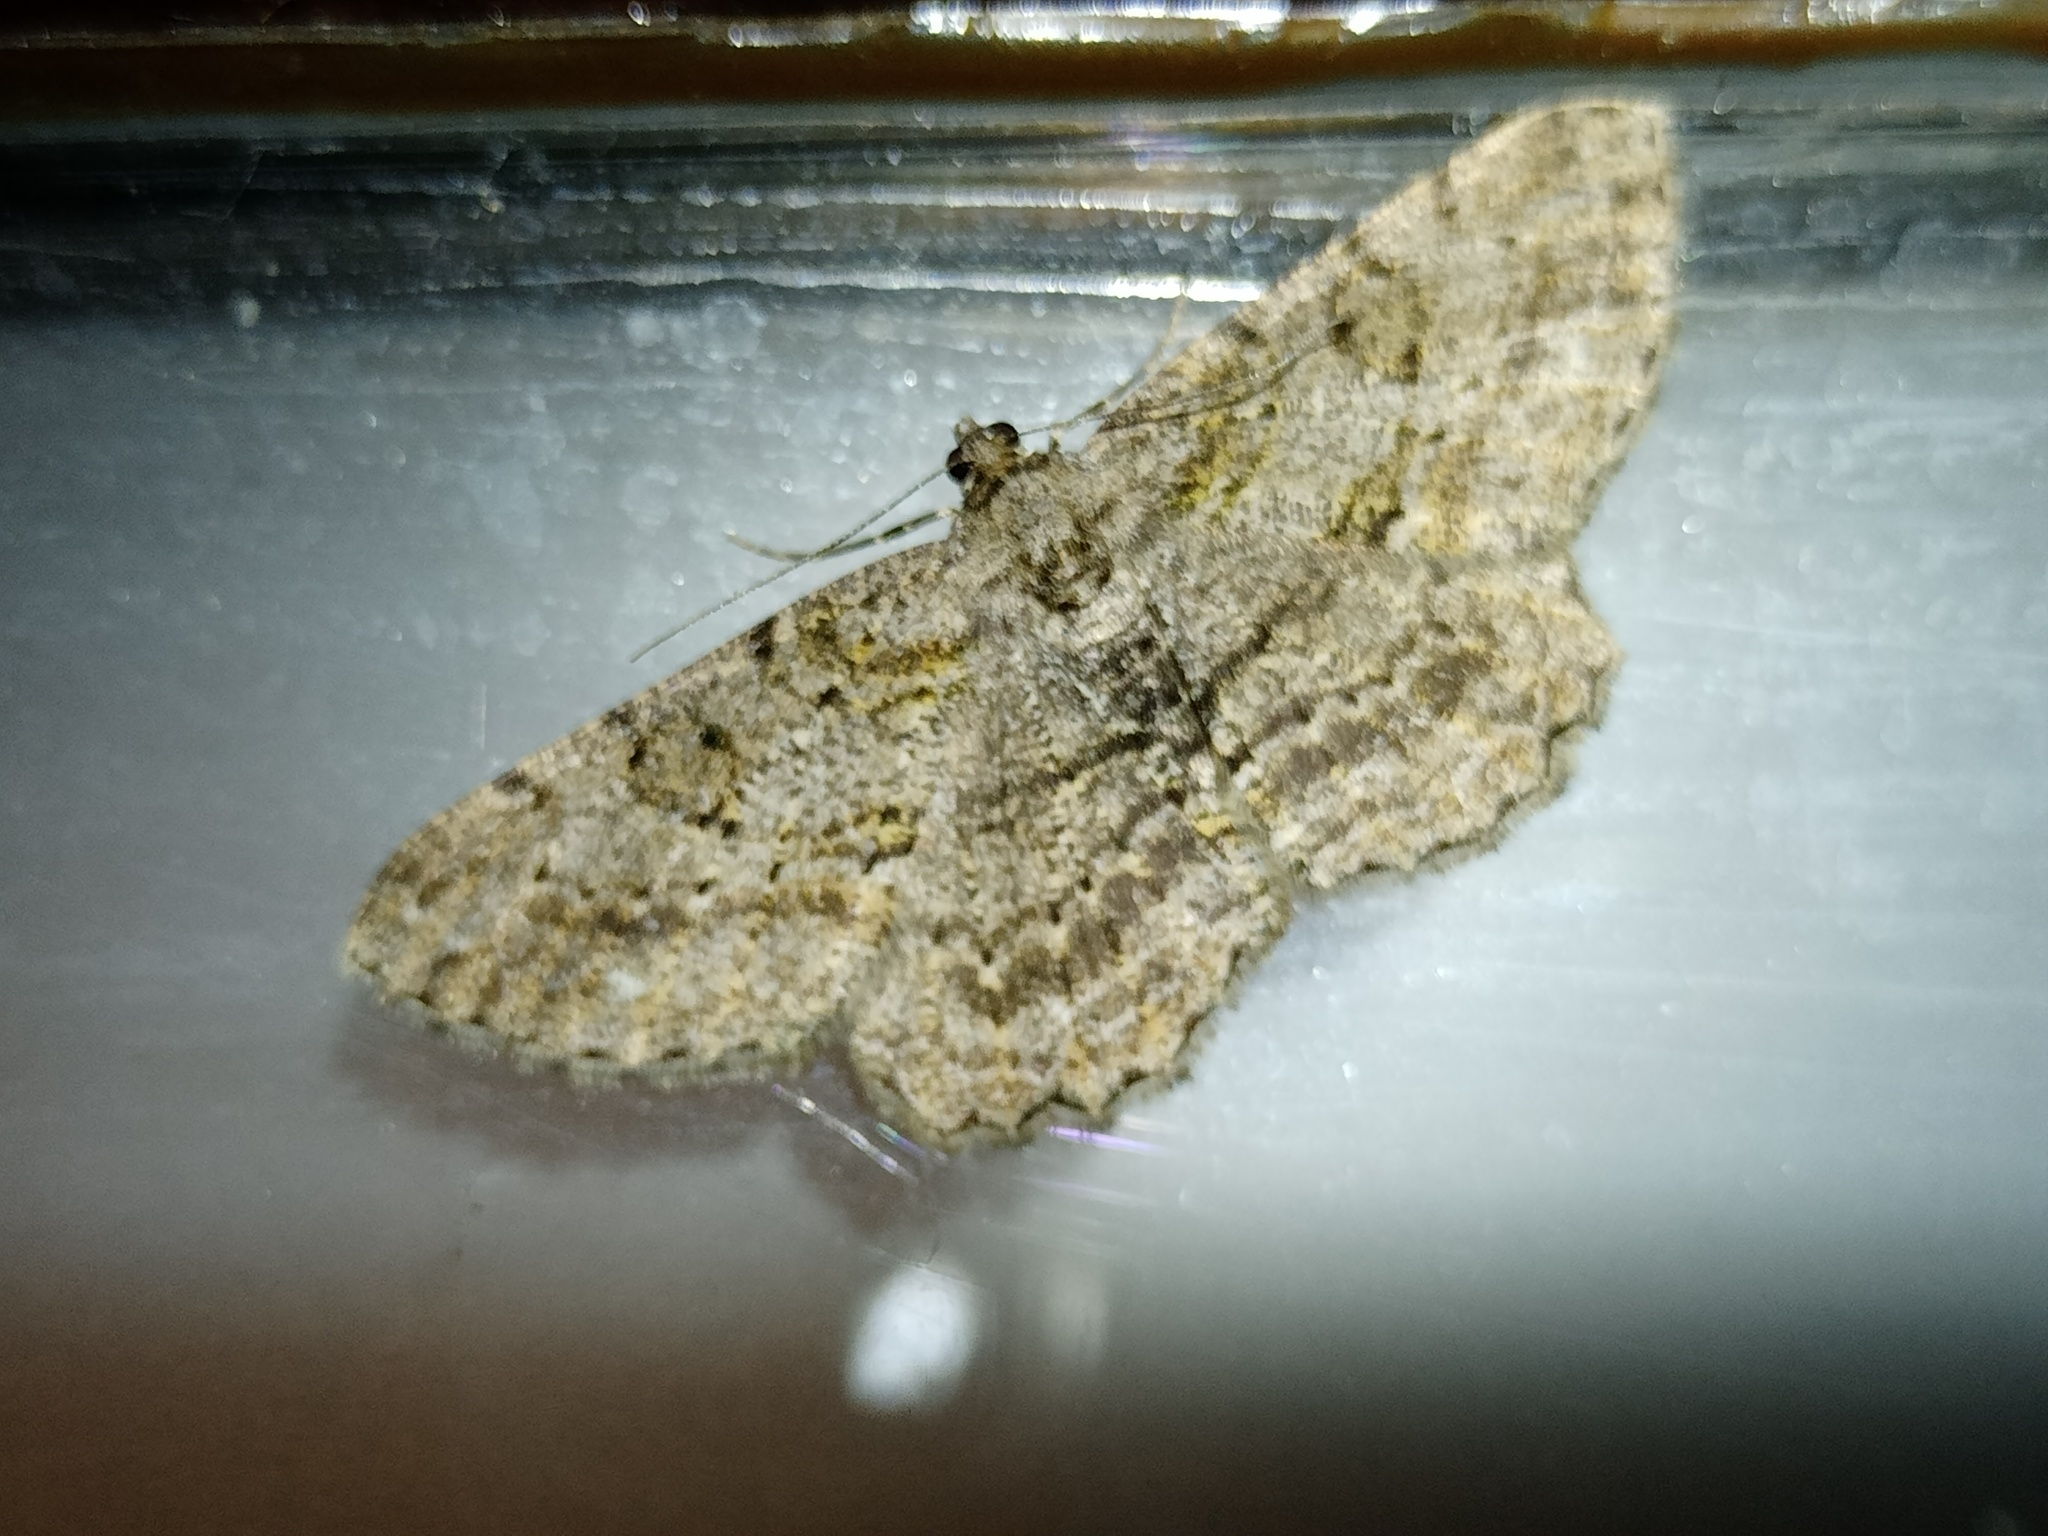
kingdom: Animalia
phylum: Arthropoda
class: Insecta
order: Lepidoptera
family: Geometridae
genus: Peribatodes
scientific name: Peribatodes rhomboidaria
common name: Willow beauty
